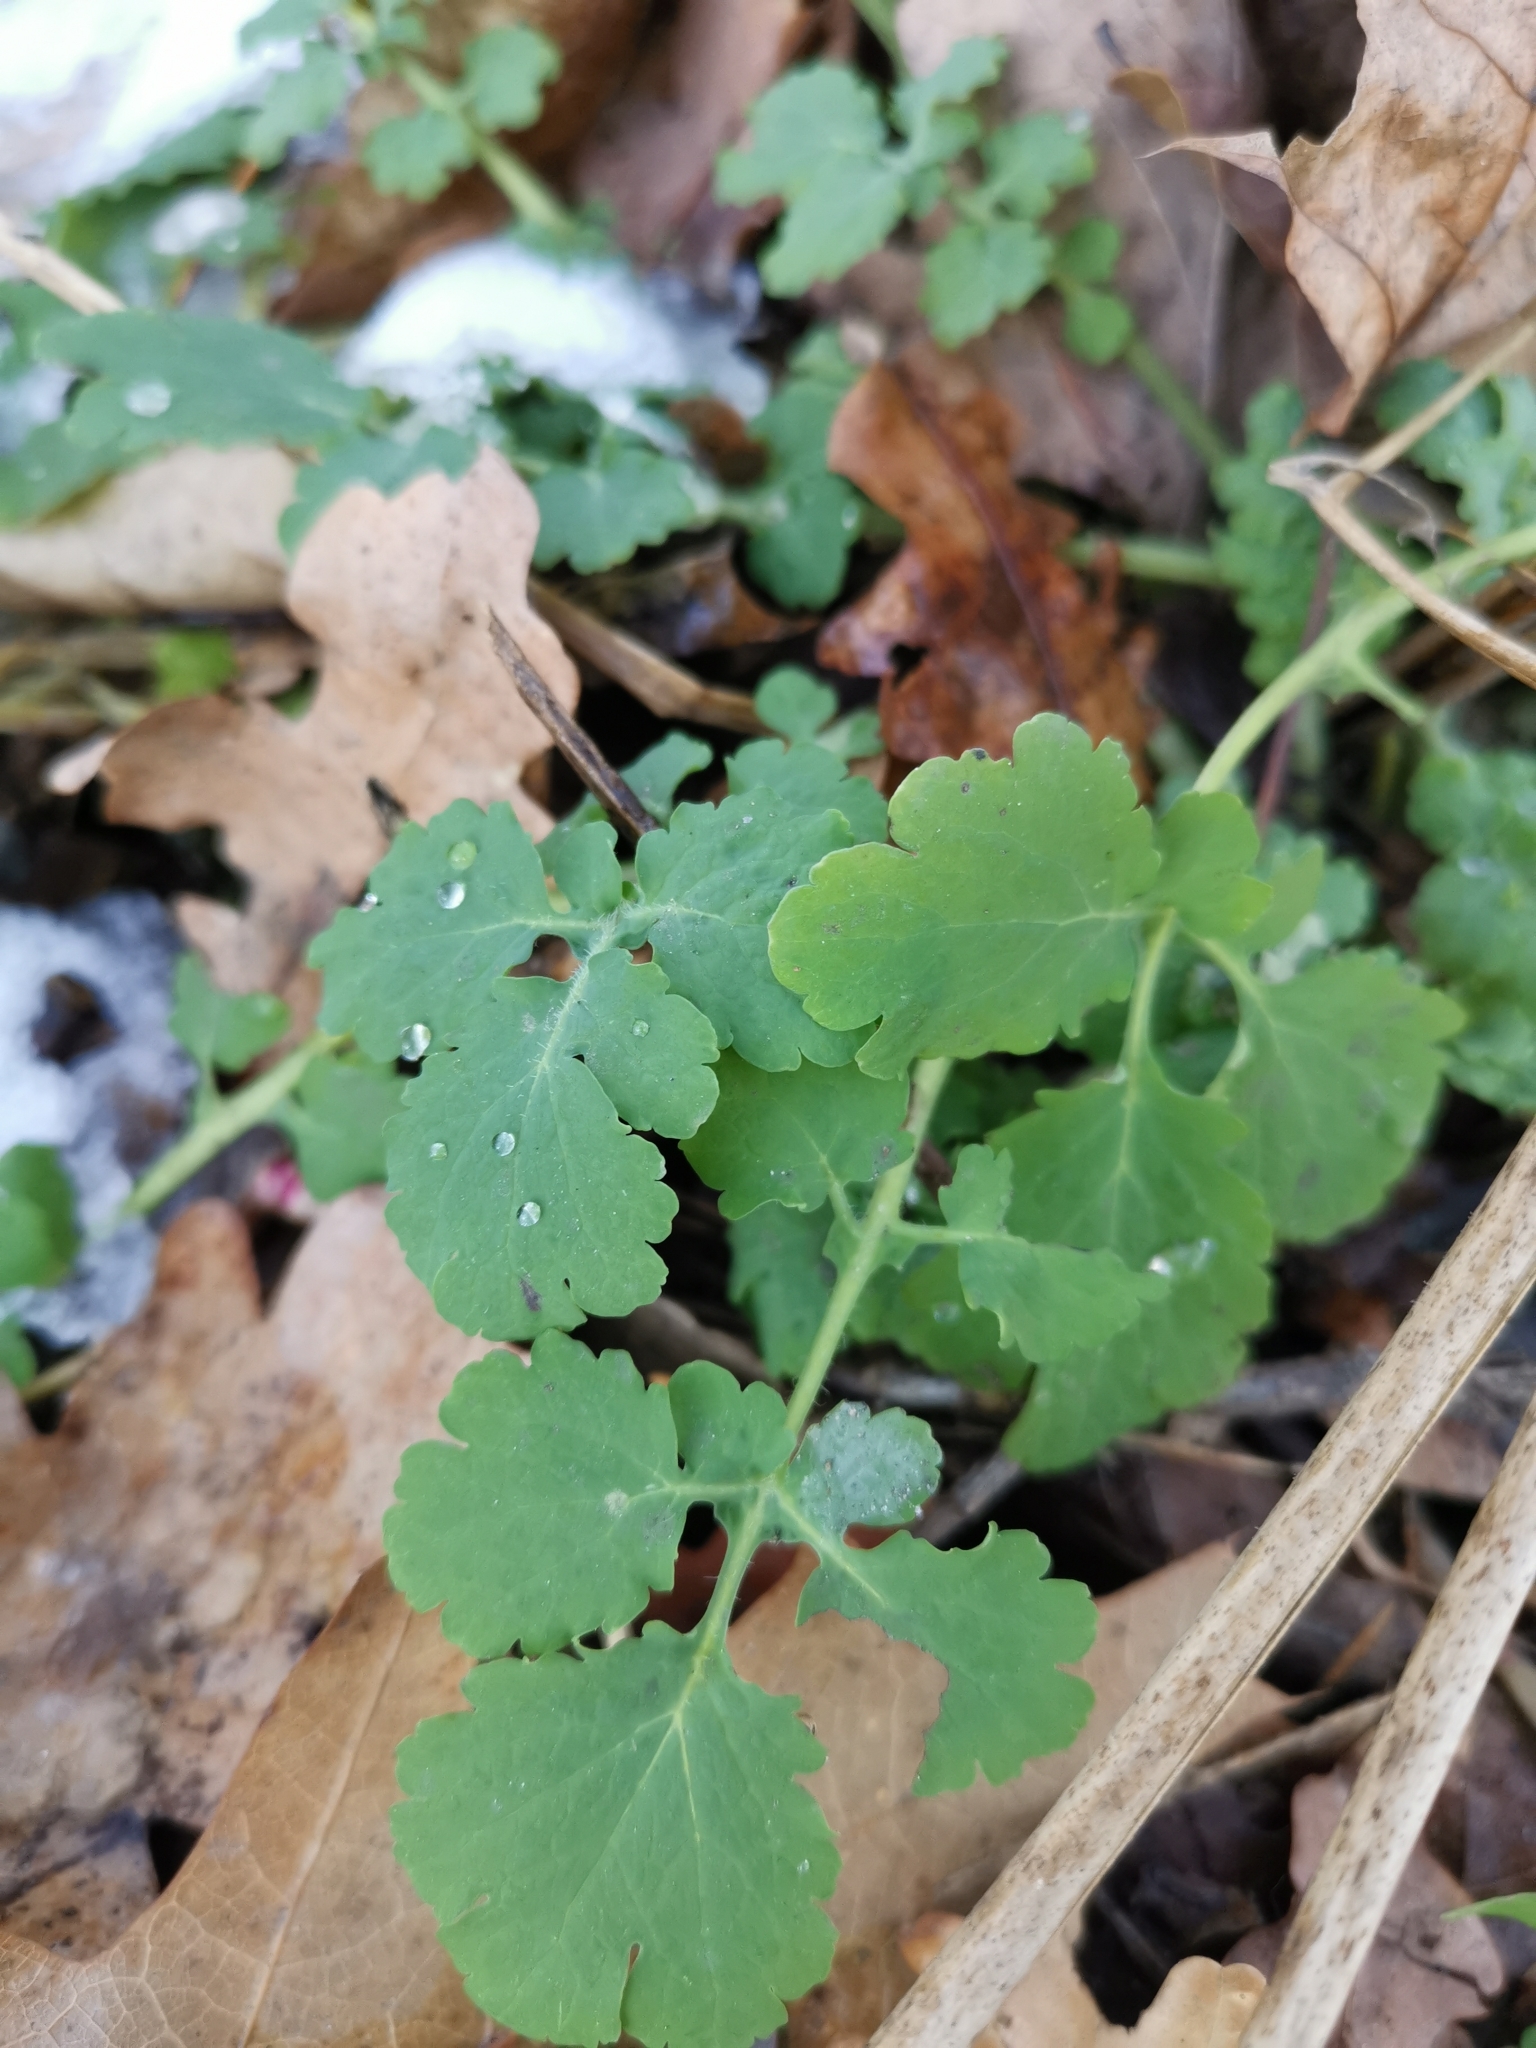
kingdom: Plantae
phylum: Tracheophyta
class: Magnoliopsida
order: Ranunculales
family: Papaveraceae
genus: Chelidonium
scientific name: Chelidonium majus
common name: Greater celandine
